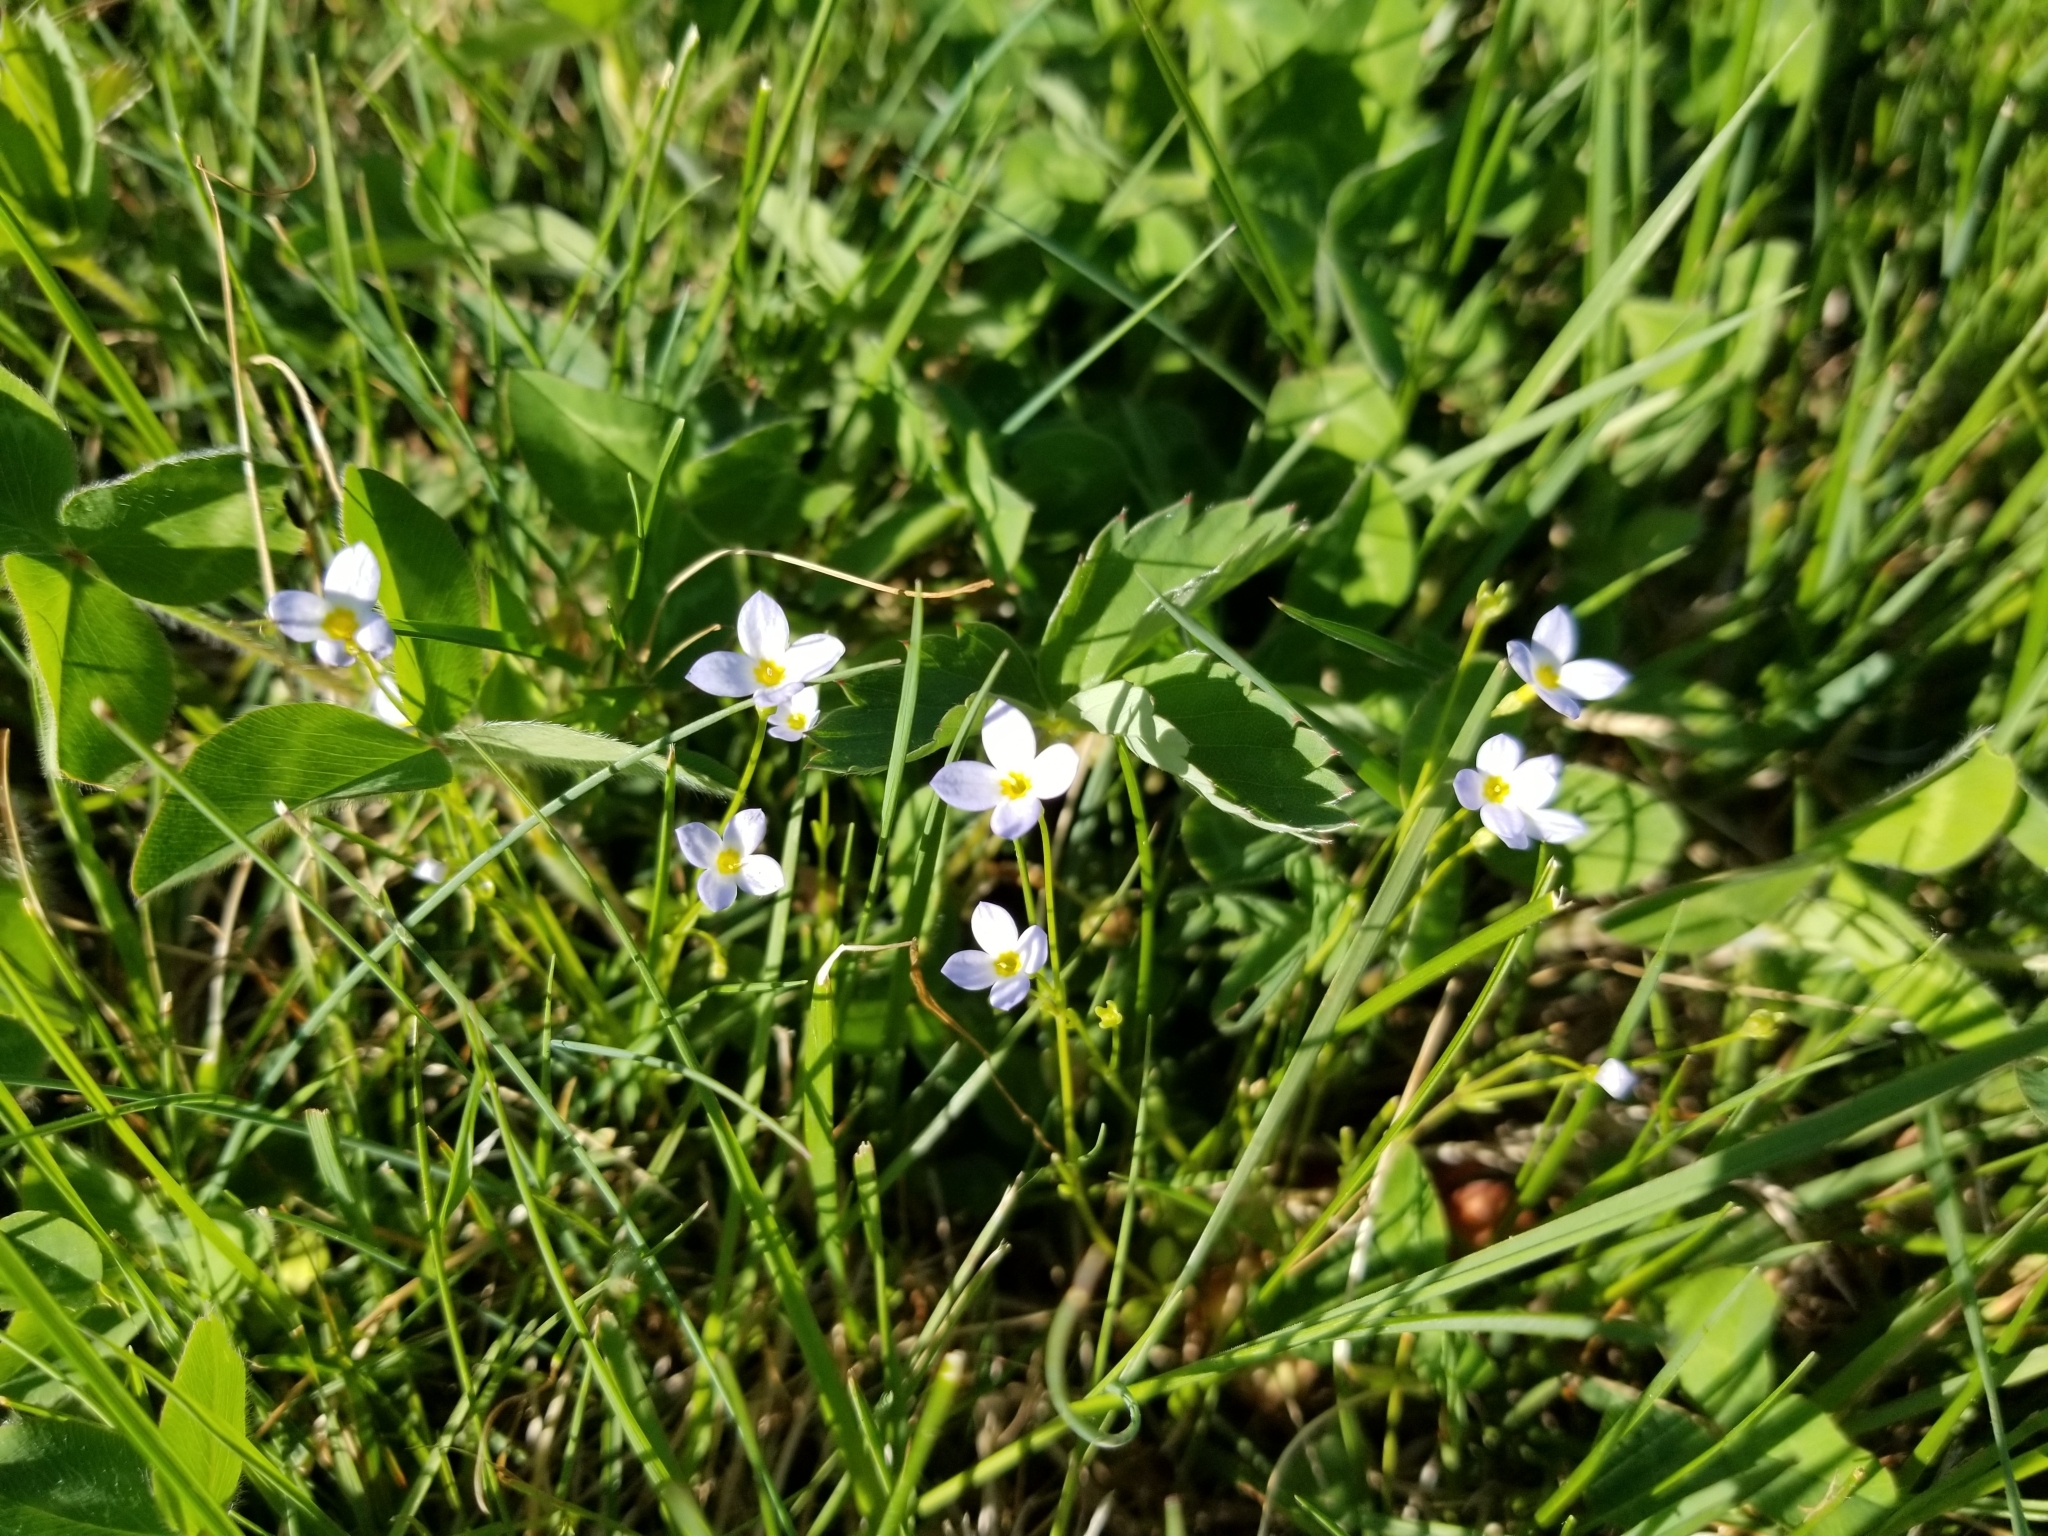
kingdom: Plantae
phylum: Tracheophyta
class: Magnoliopsida
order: Gentianales
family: Rubiaceae
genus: Houstonia
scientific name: Houstonia caerulea
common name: Bluets
